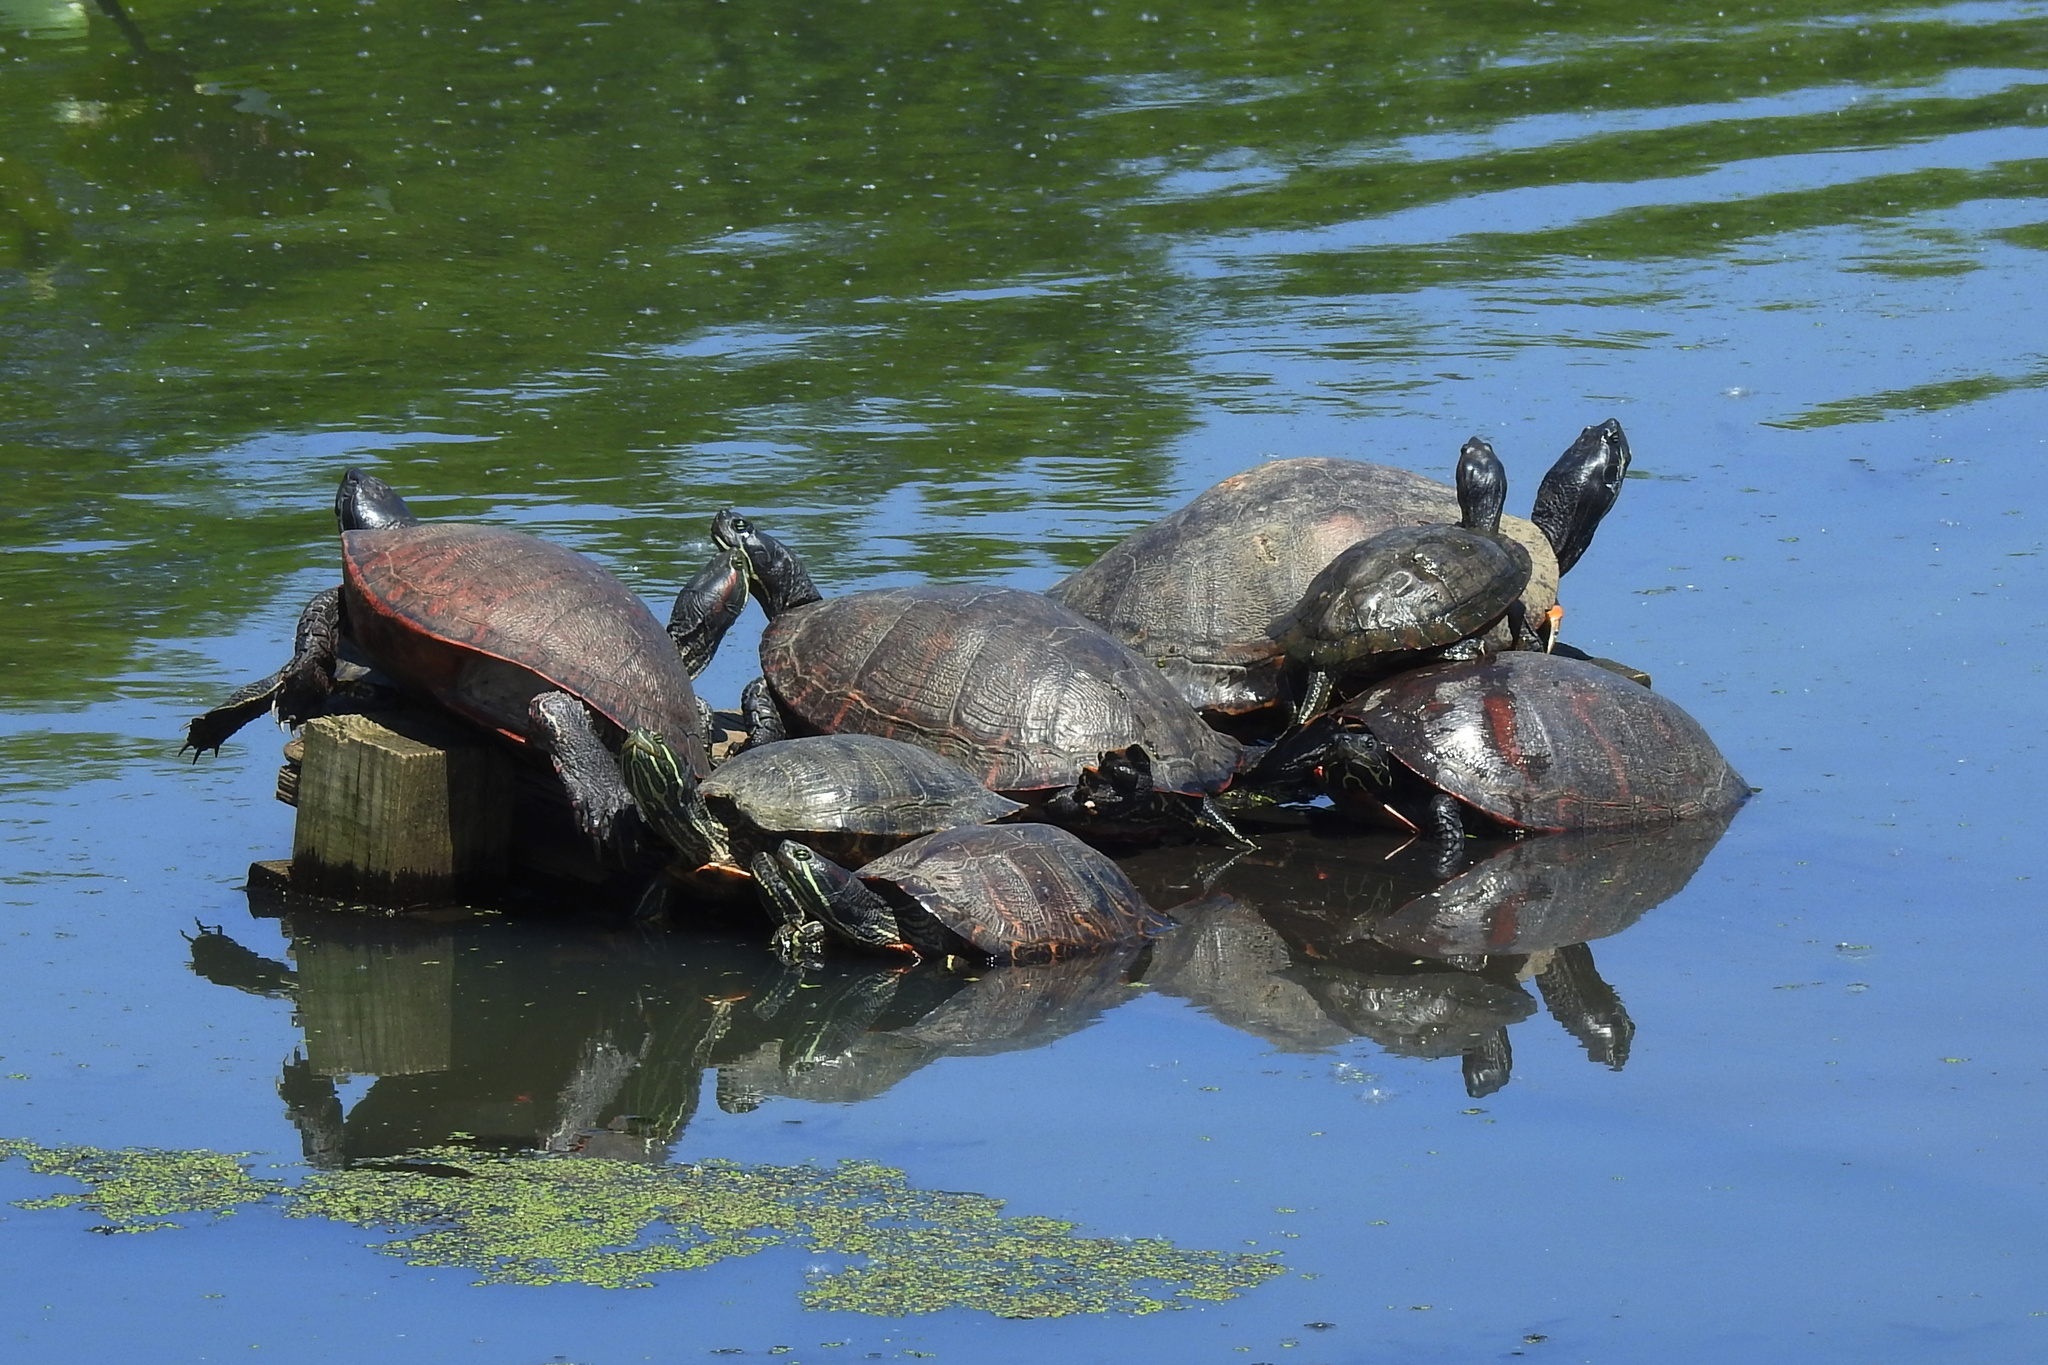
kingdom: Animalia
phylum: Chordata
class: Testudines
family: Emydidae
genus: Pseudemys
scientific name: Pseudemys rubriventris
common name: American red-bellied turtle
